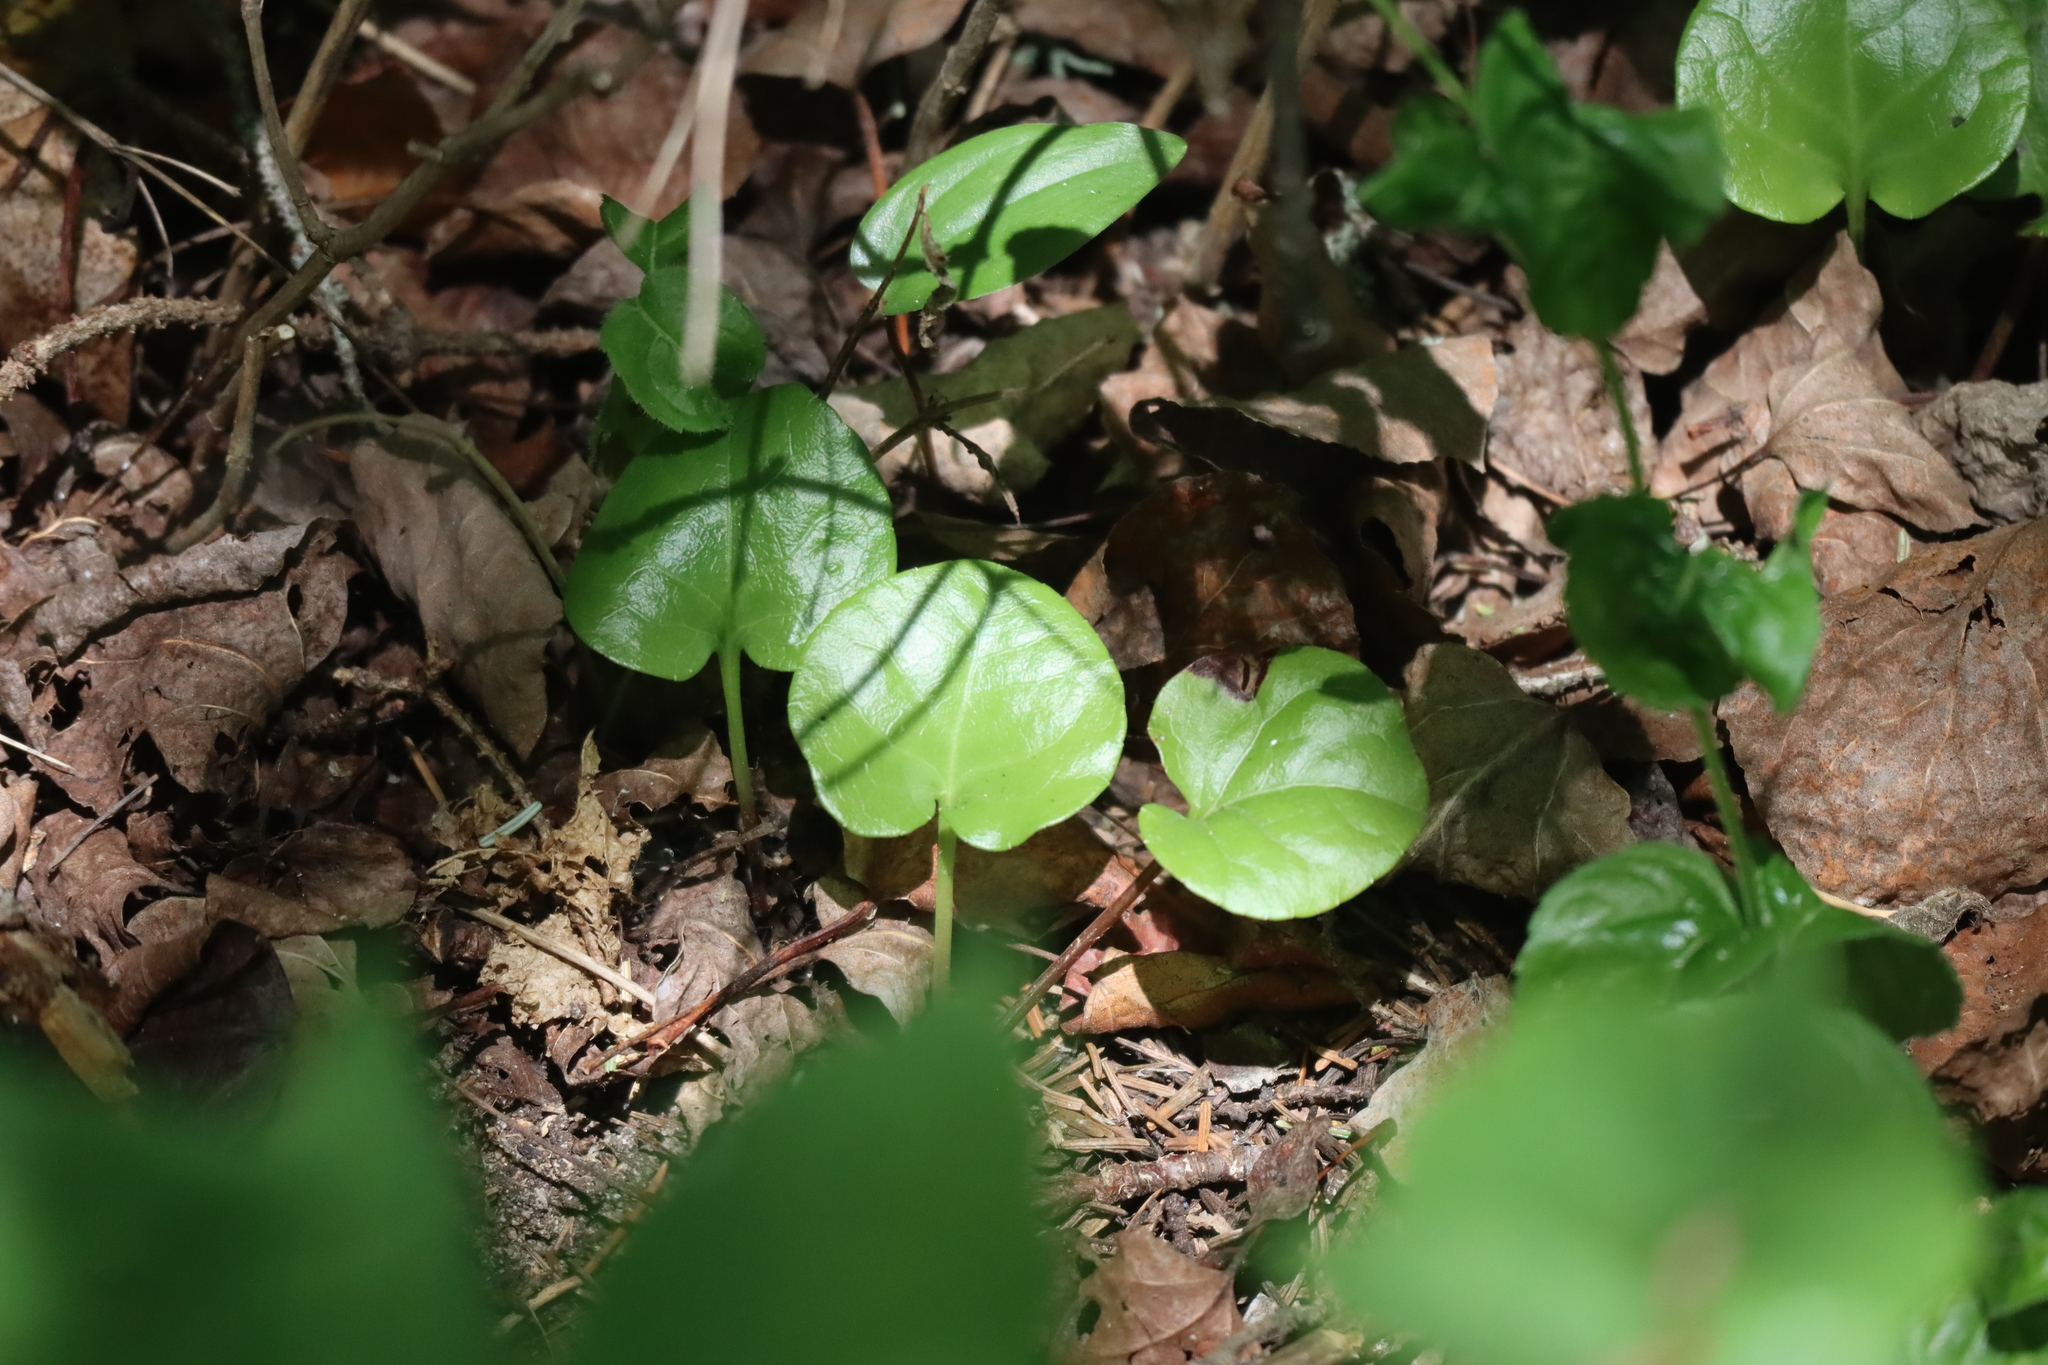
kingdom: Plantae
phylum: Tracheophyta
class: Magnoliopsida
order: Ericales
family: Ericaceae
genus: Pyrola
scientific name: Pyrola asarifolia
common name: Bog wintergreen
